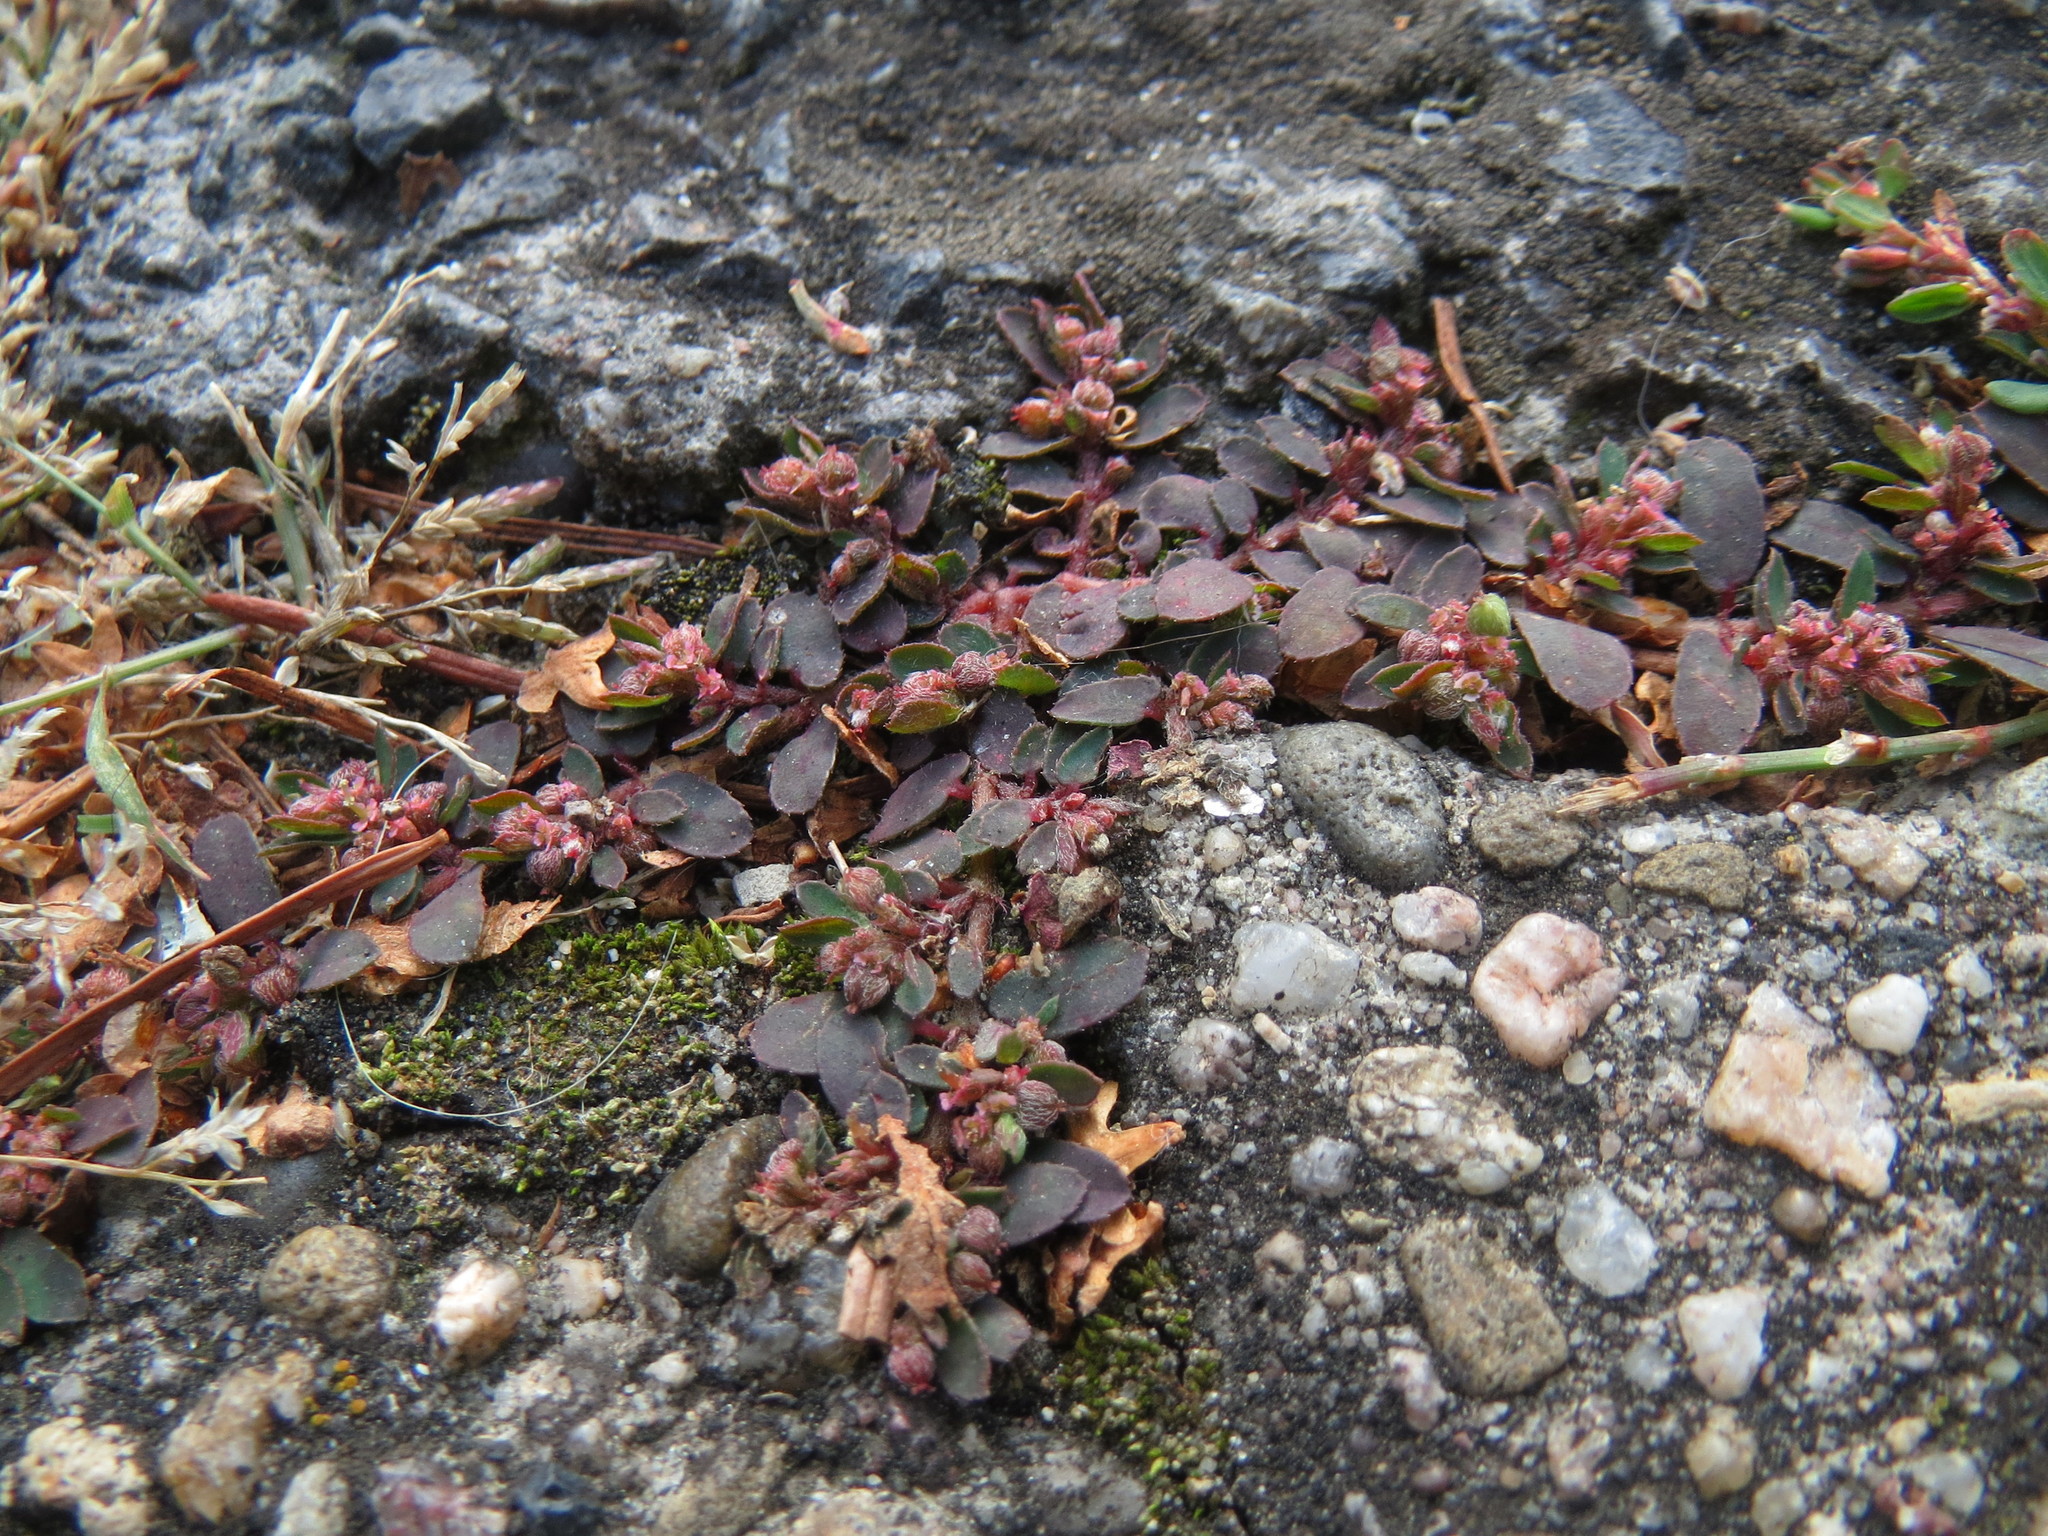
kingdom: Plantae
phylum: Tracheophyta
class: Magnoliopsida
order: Malpighiales
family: Euphorbiaceae
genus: Euphorbia
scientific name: Euphorbia maculata
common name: Spotted spurge
